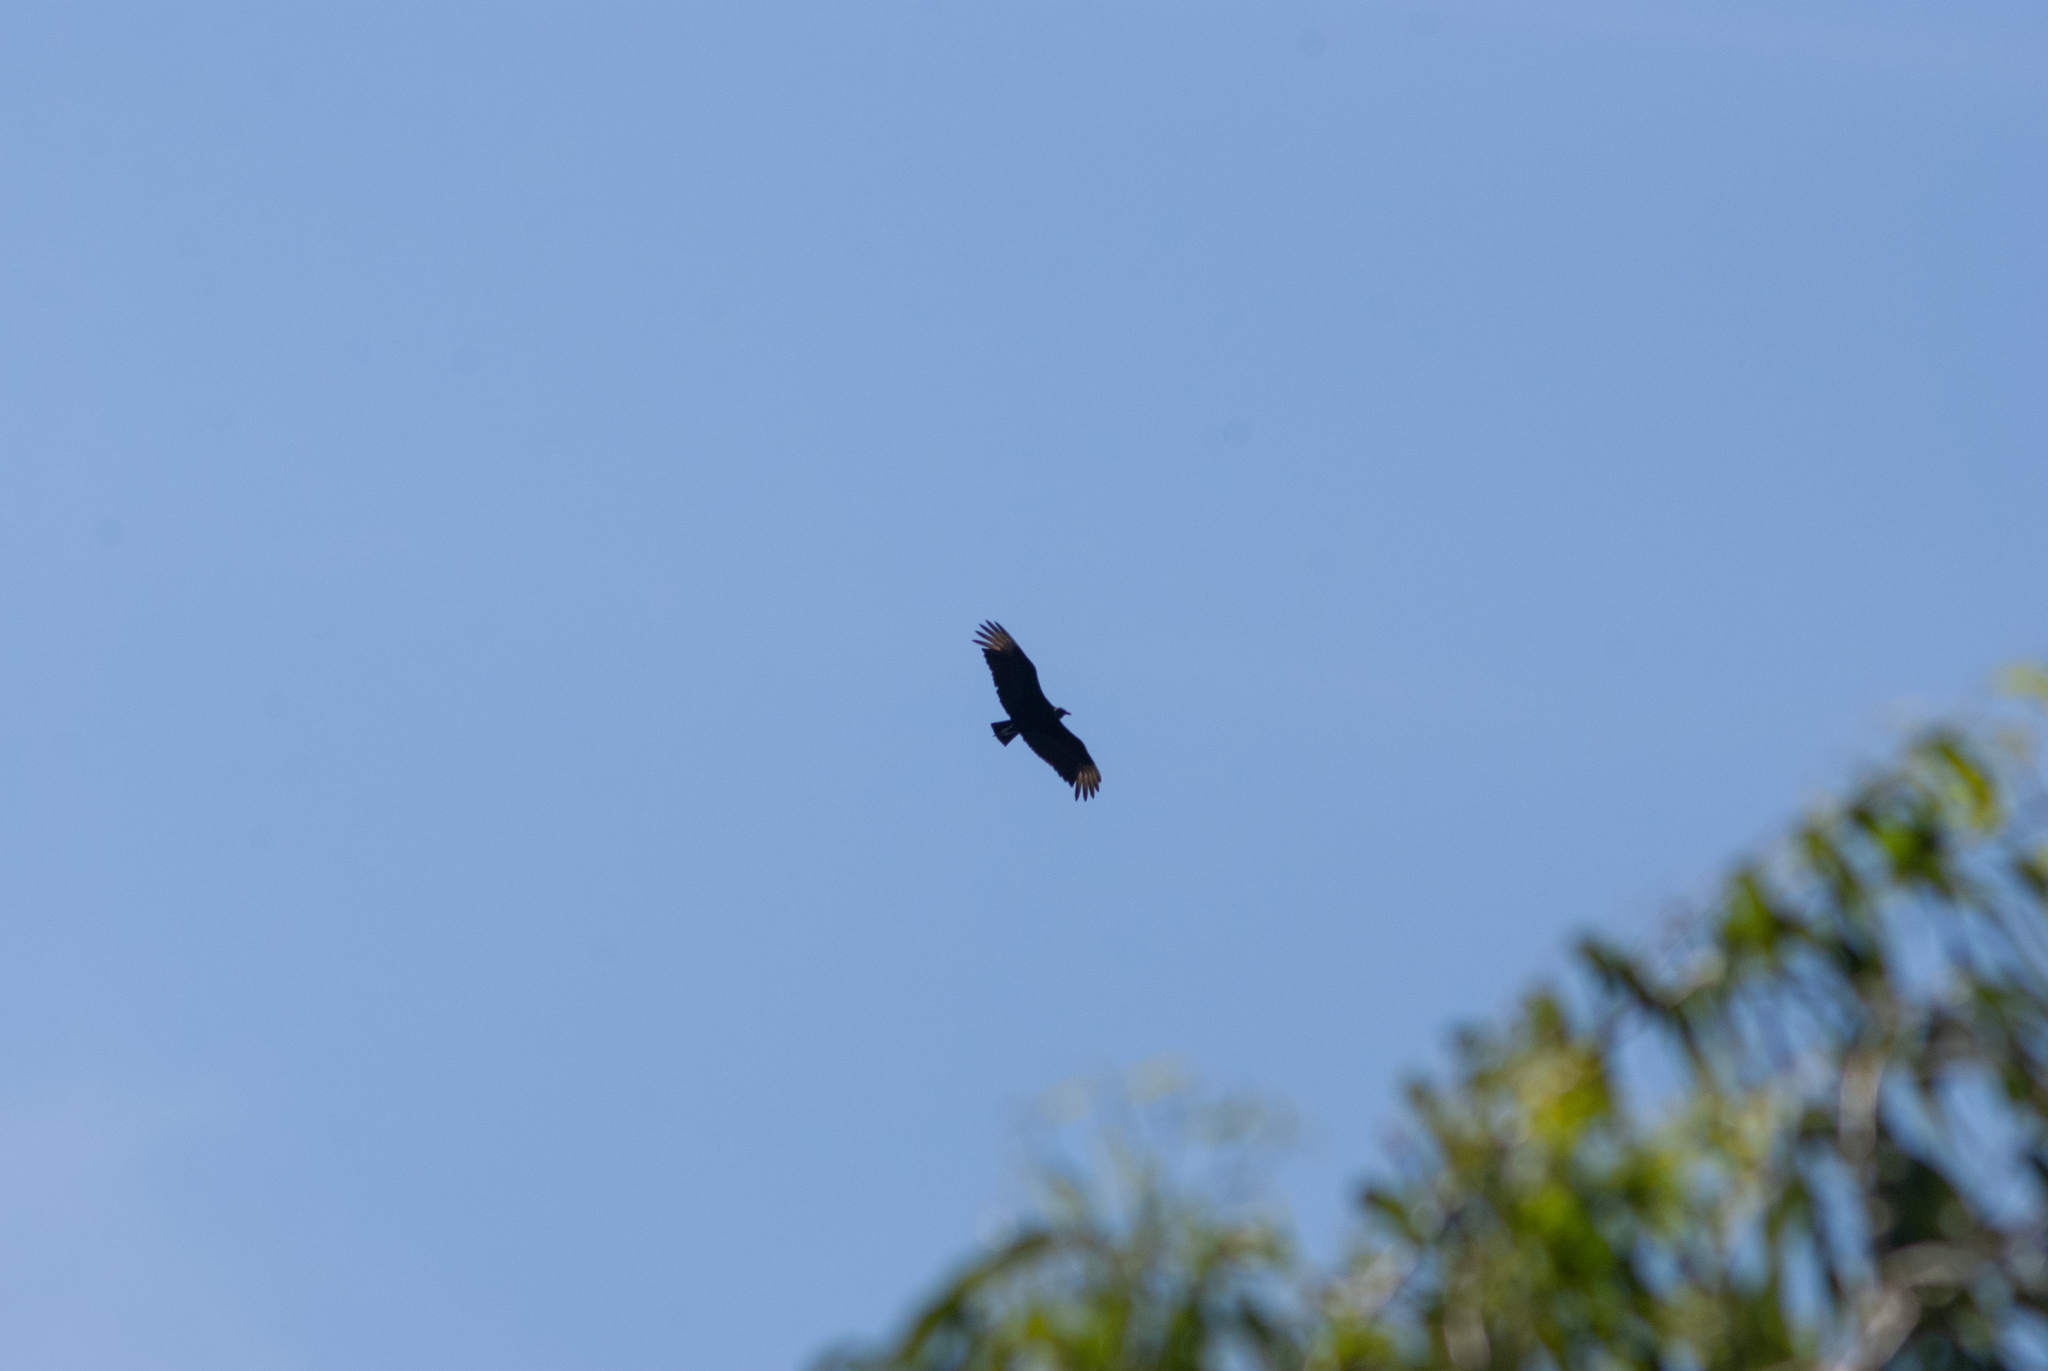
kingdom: Animalia
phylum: Chordata
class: Aves
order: Accipitriformes
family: Cathartidae
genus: Coragyps
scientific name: Coragyps atratus
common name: Black vulture
